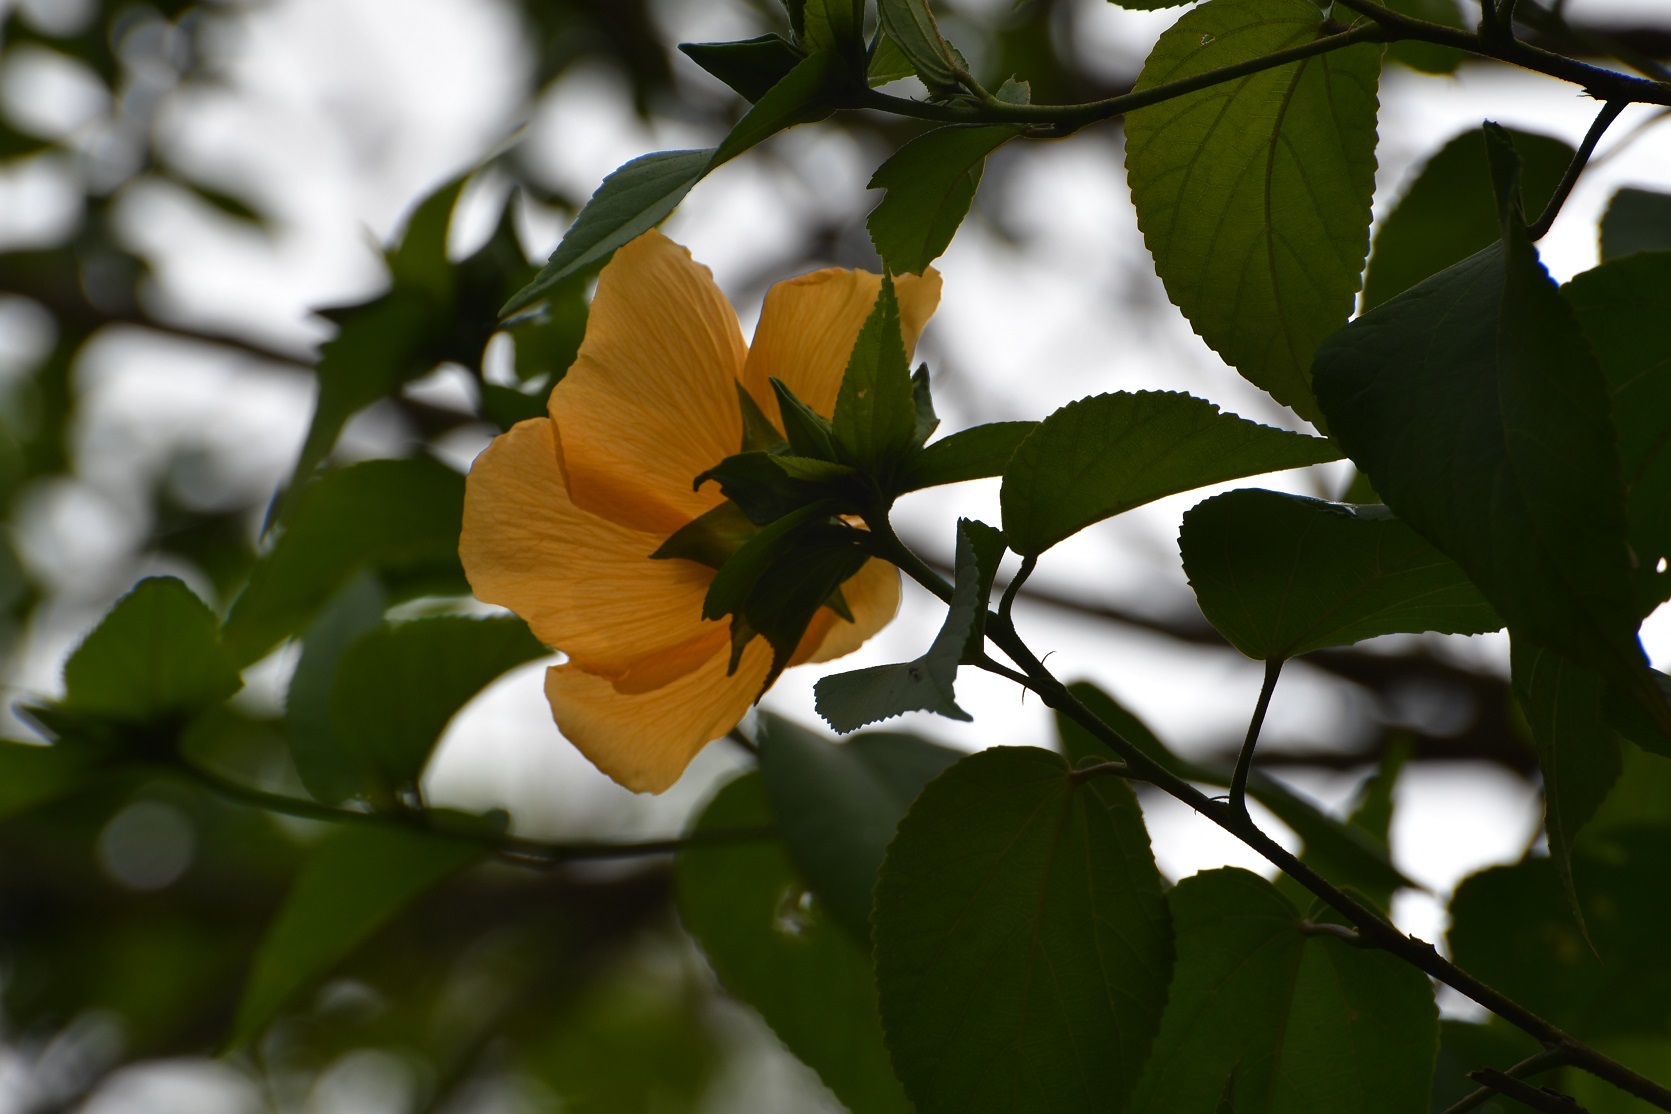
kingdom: Plantae
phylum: Tracheophyta
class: Magnoliopsida
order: Malvales
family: Malvaceae
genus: Dendrosida
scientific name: Dendrosida sharpiana
